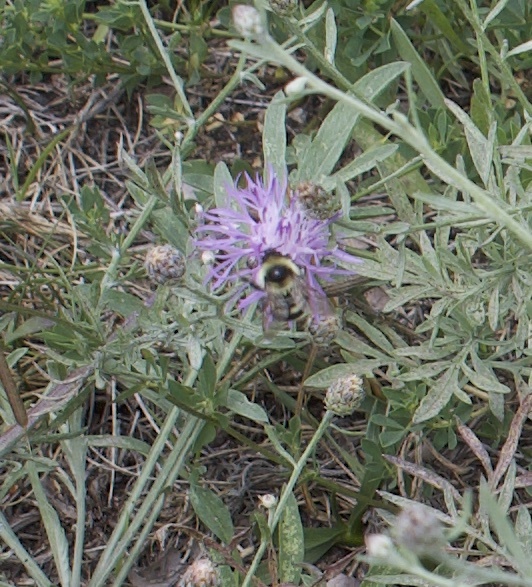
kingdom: Animalia
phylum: Arthropoda
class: Insecta
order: Hymenoptera
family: Apidae
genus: Bombus
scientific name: Bombus rufocinctus
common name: Red-belted bumble bee
